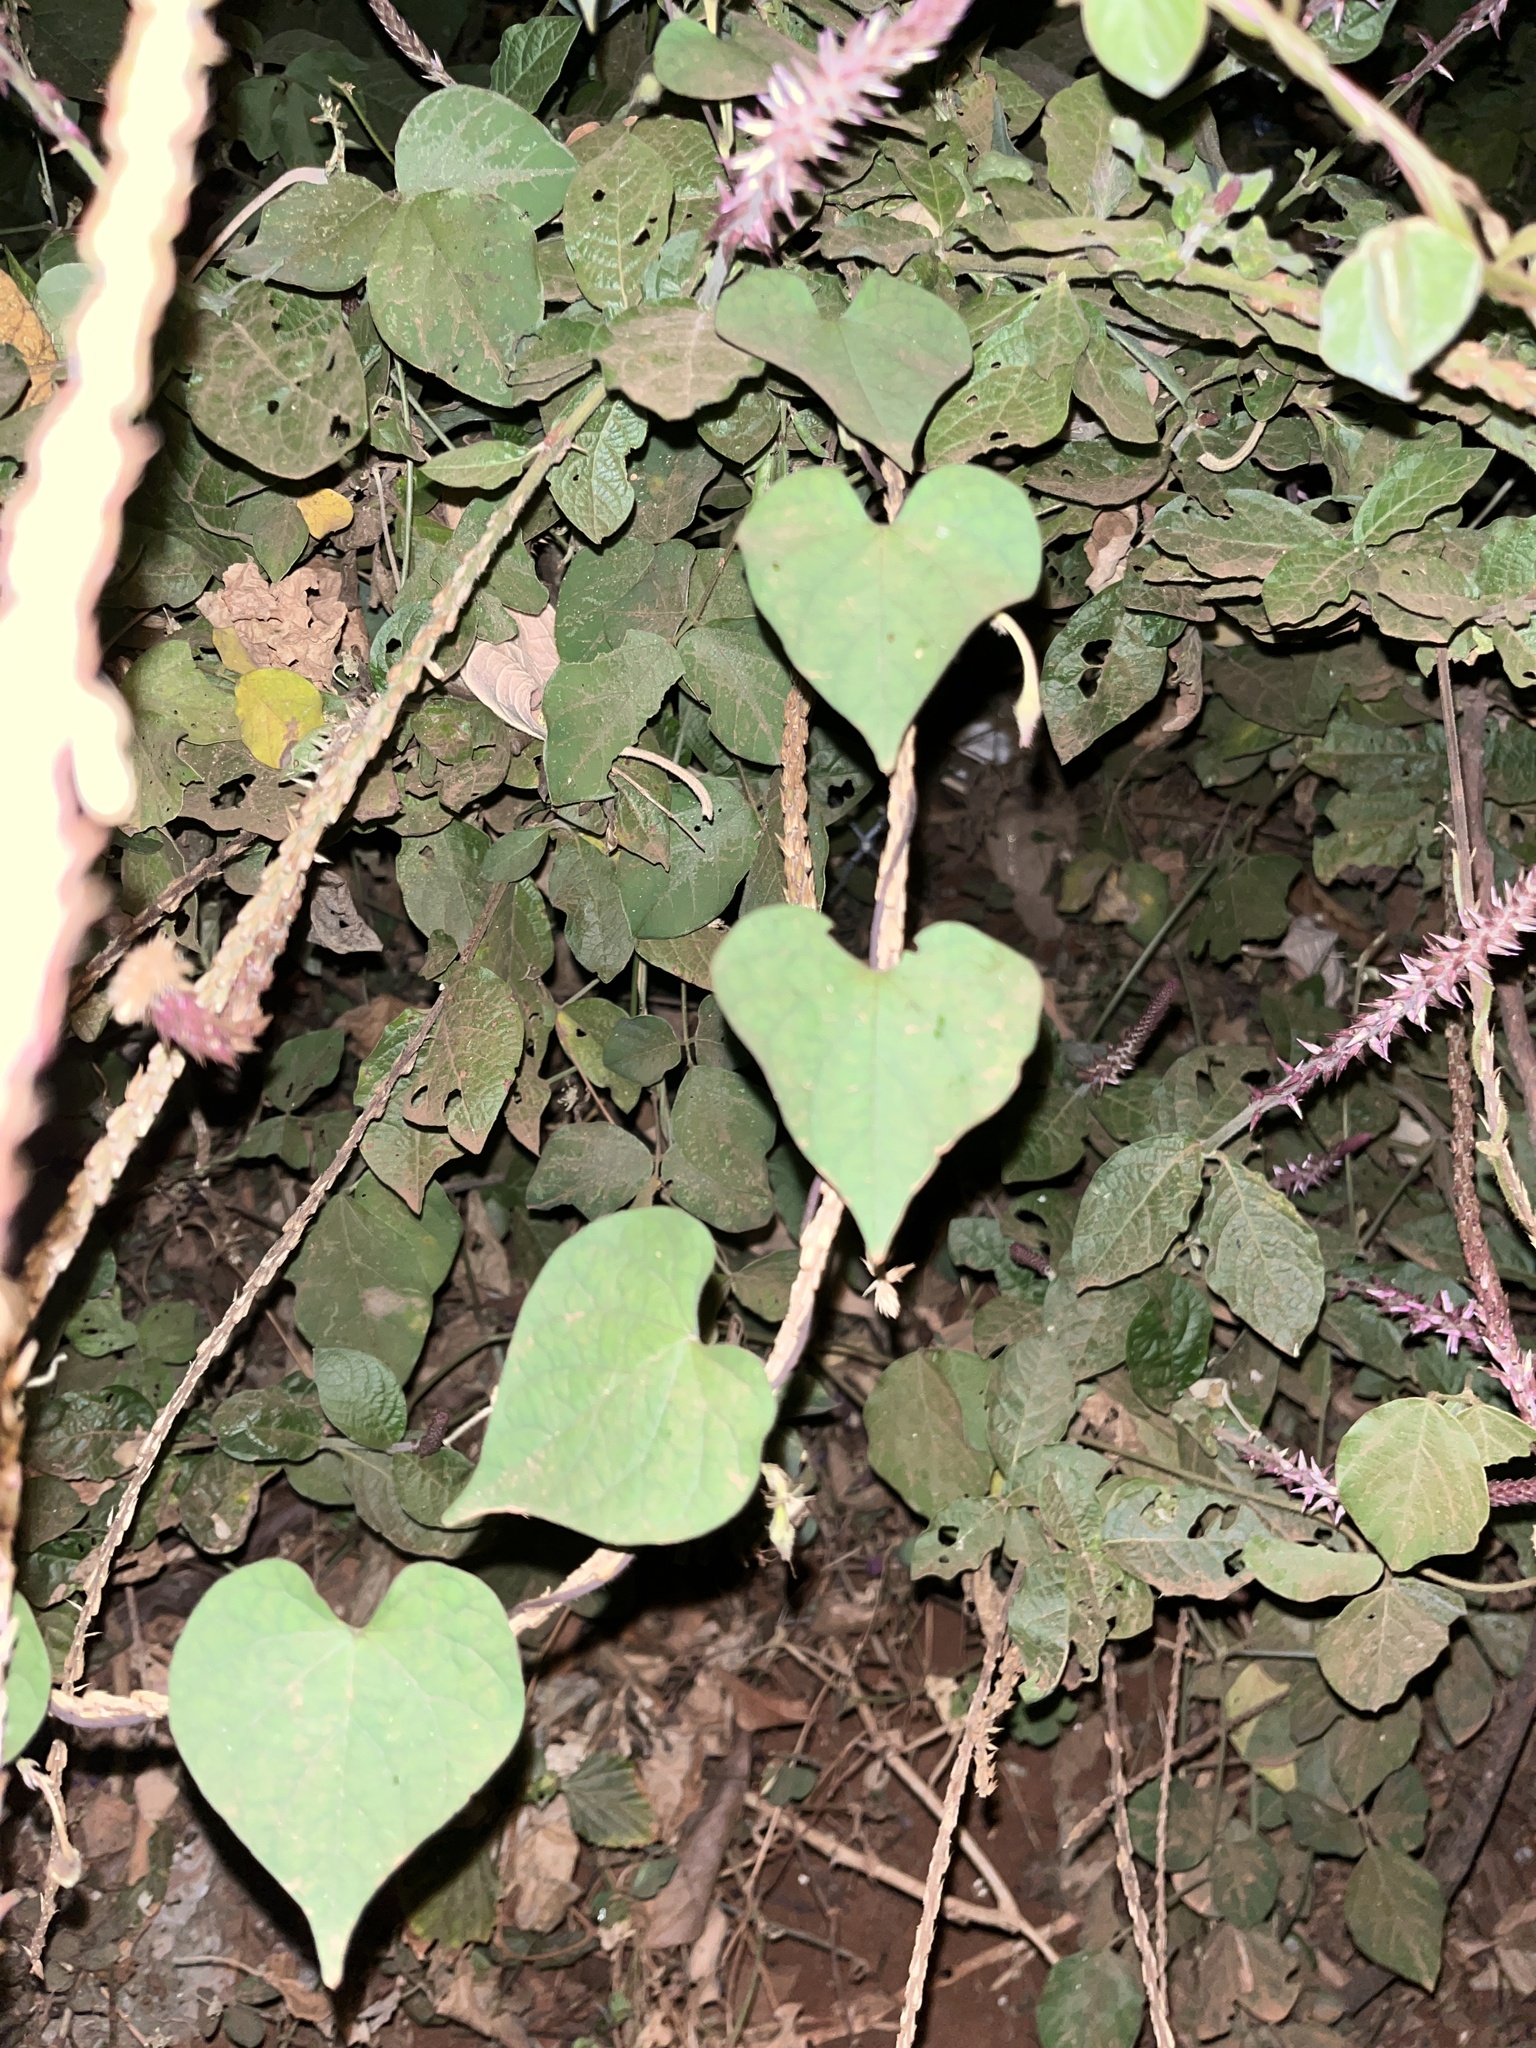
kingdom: Plantae
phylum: Tracheophyta
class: Magnoliopsida
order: Caryophyllales
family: Amaranthaceae
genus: Achyranthes
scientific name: Achyranthes aspera
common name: Devil's horsewhip
